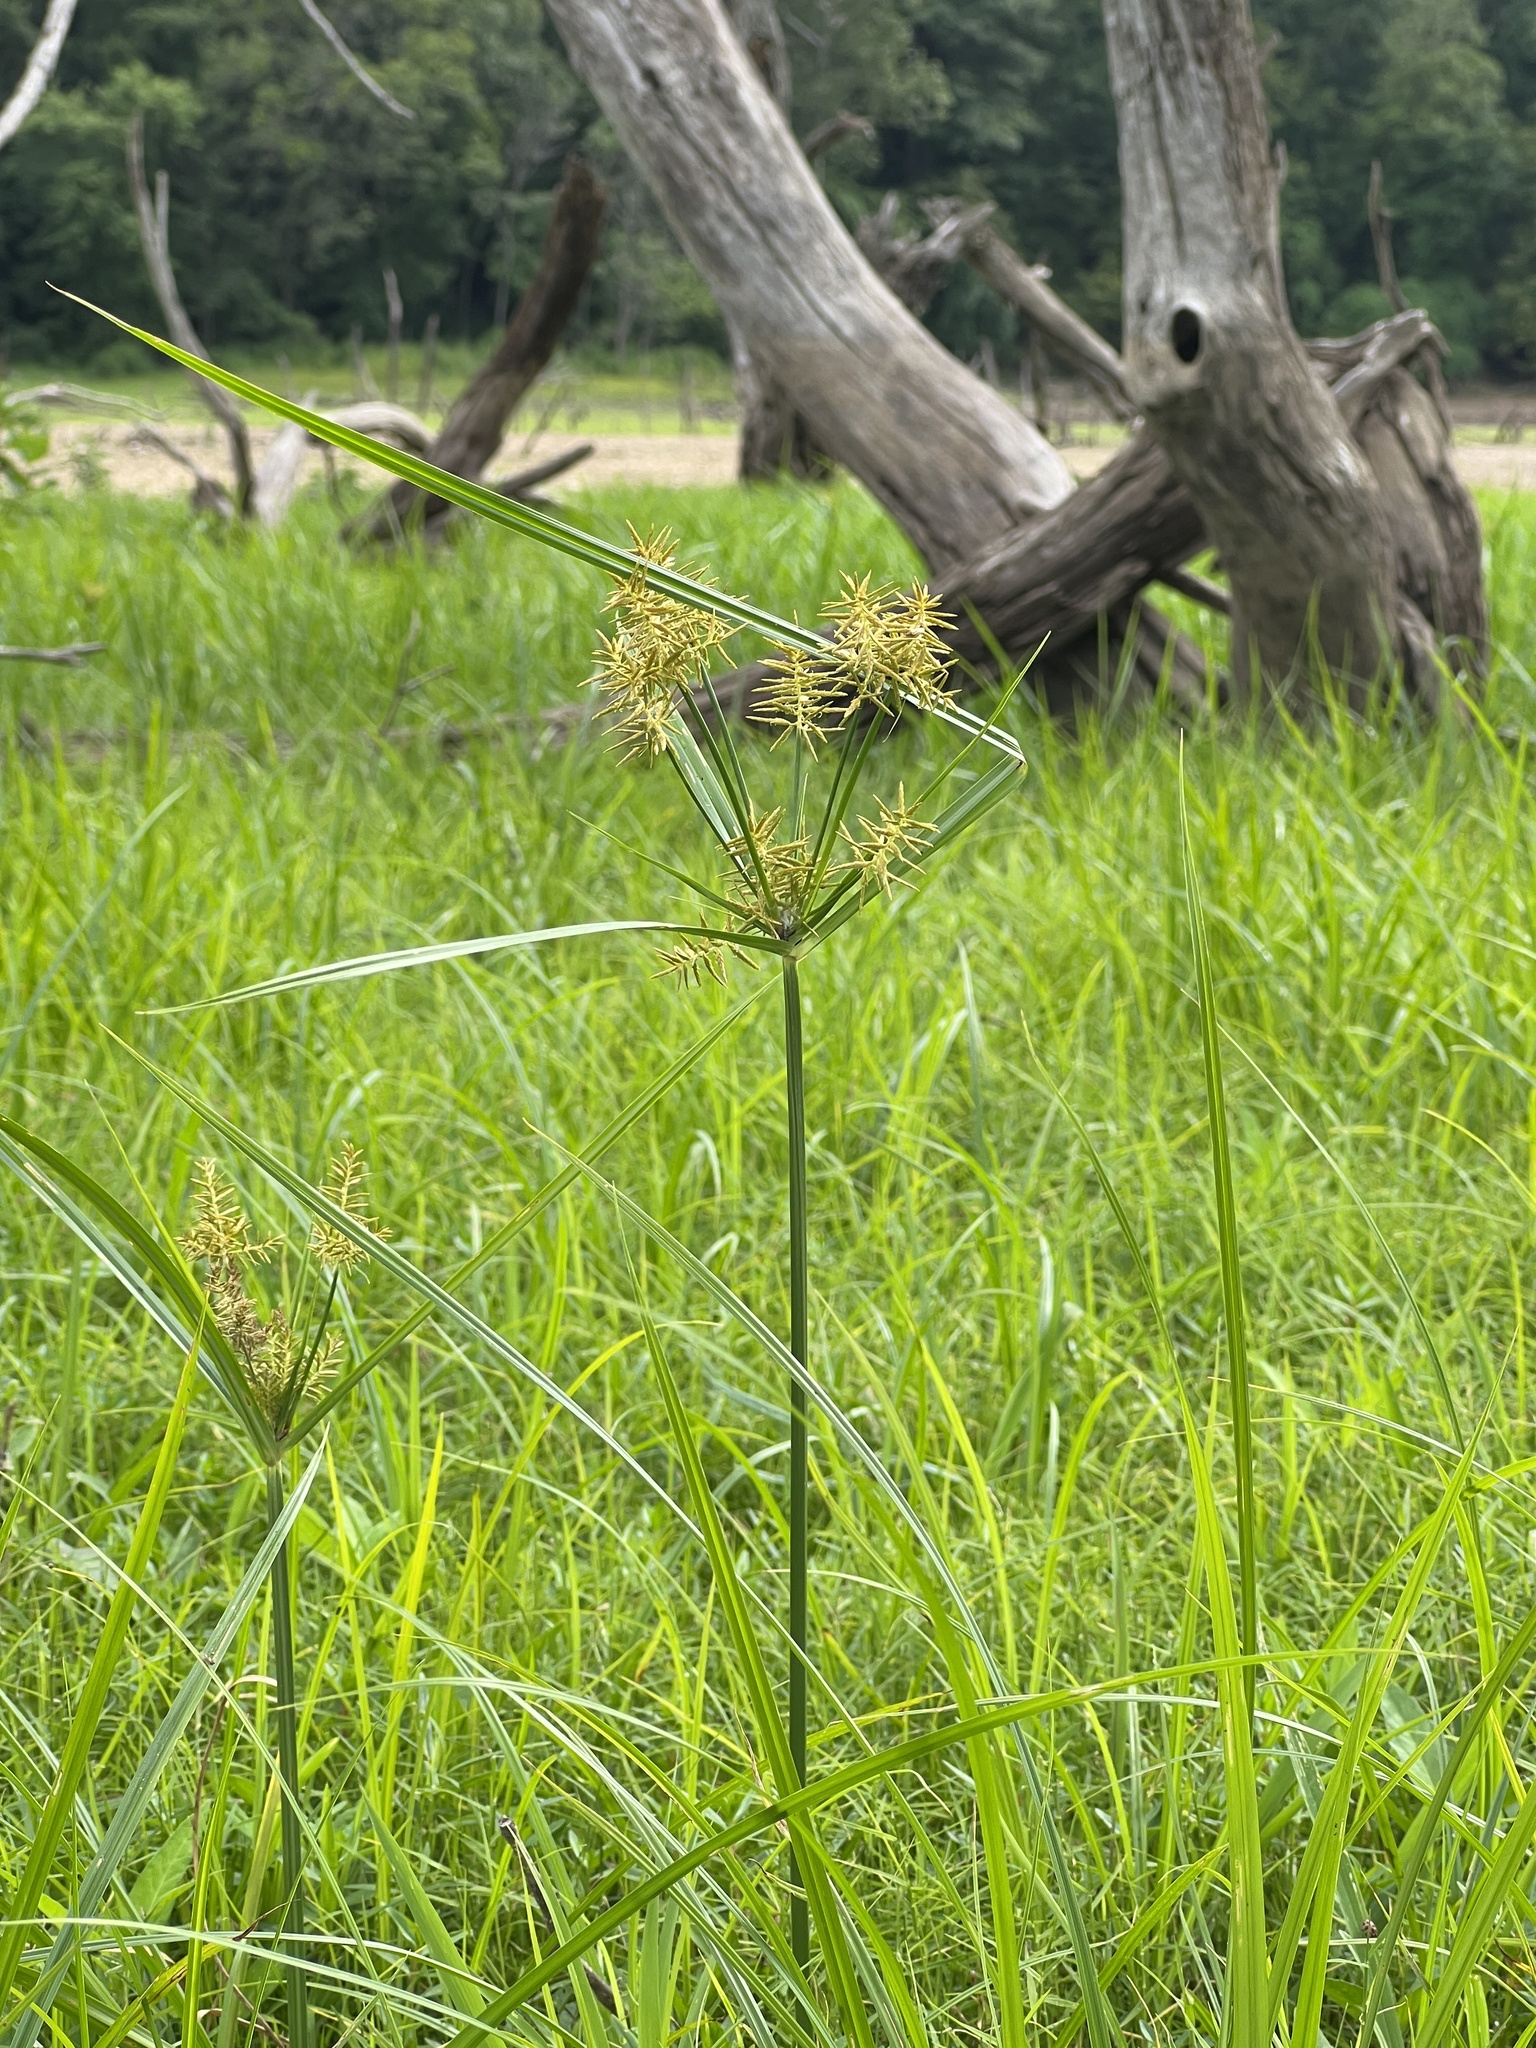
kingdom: Plantae
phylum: Tracheophyta
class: Liliopsida
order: Poales
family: Cyperaceae
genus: Cyperus
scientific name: Cyperus esculentus
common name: Yellow nutsedge
